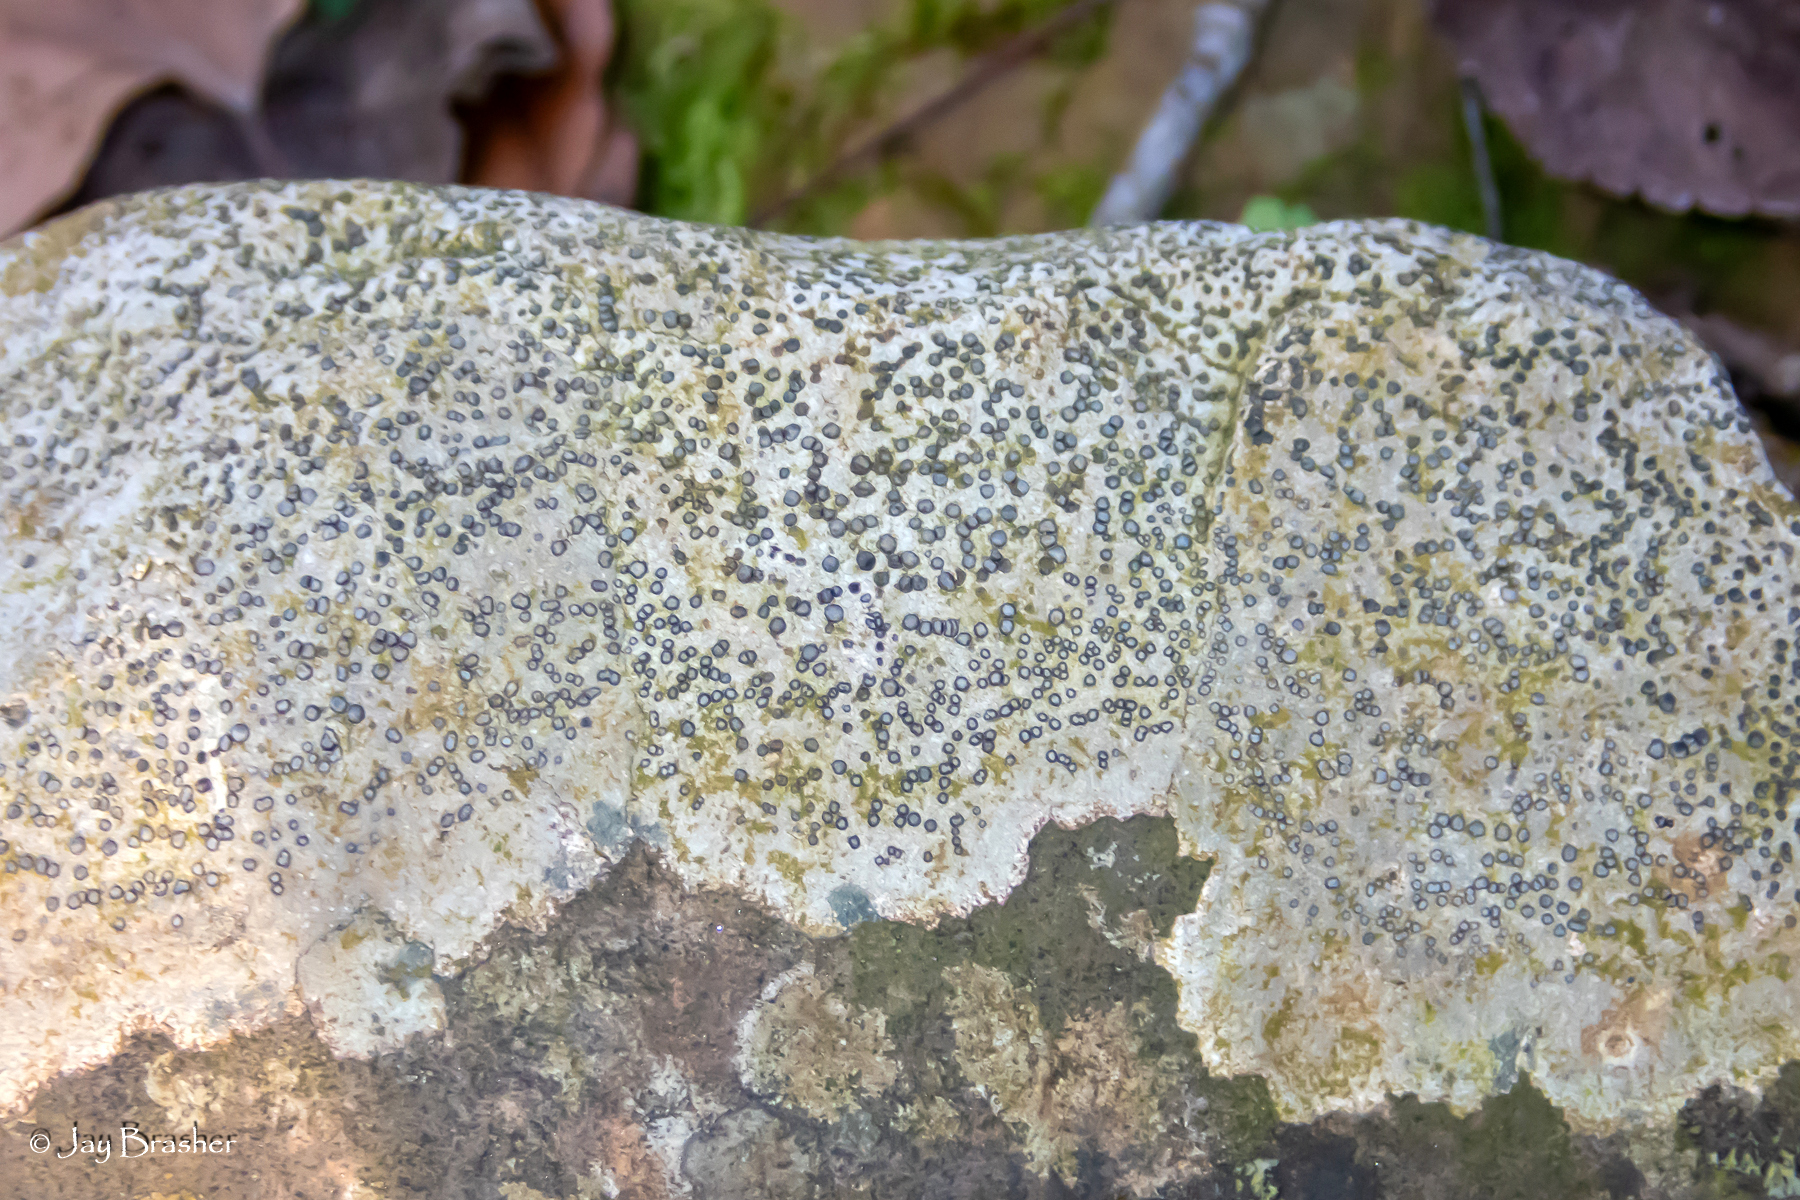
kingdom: Fungi
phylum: Ascomycota
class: Lecanoromycetes
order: Lecideales
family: Lecideaceae
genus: Porpidia
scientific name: Porpidia albocaerulescens
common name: Smokey-eyed boulder lichen
